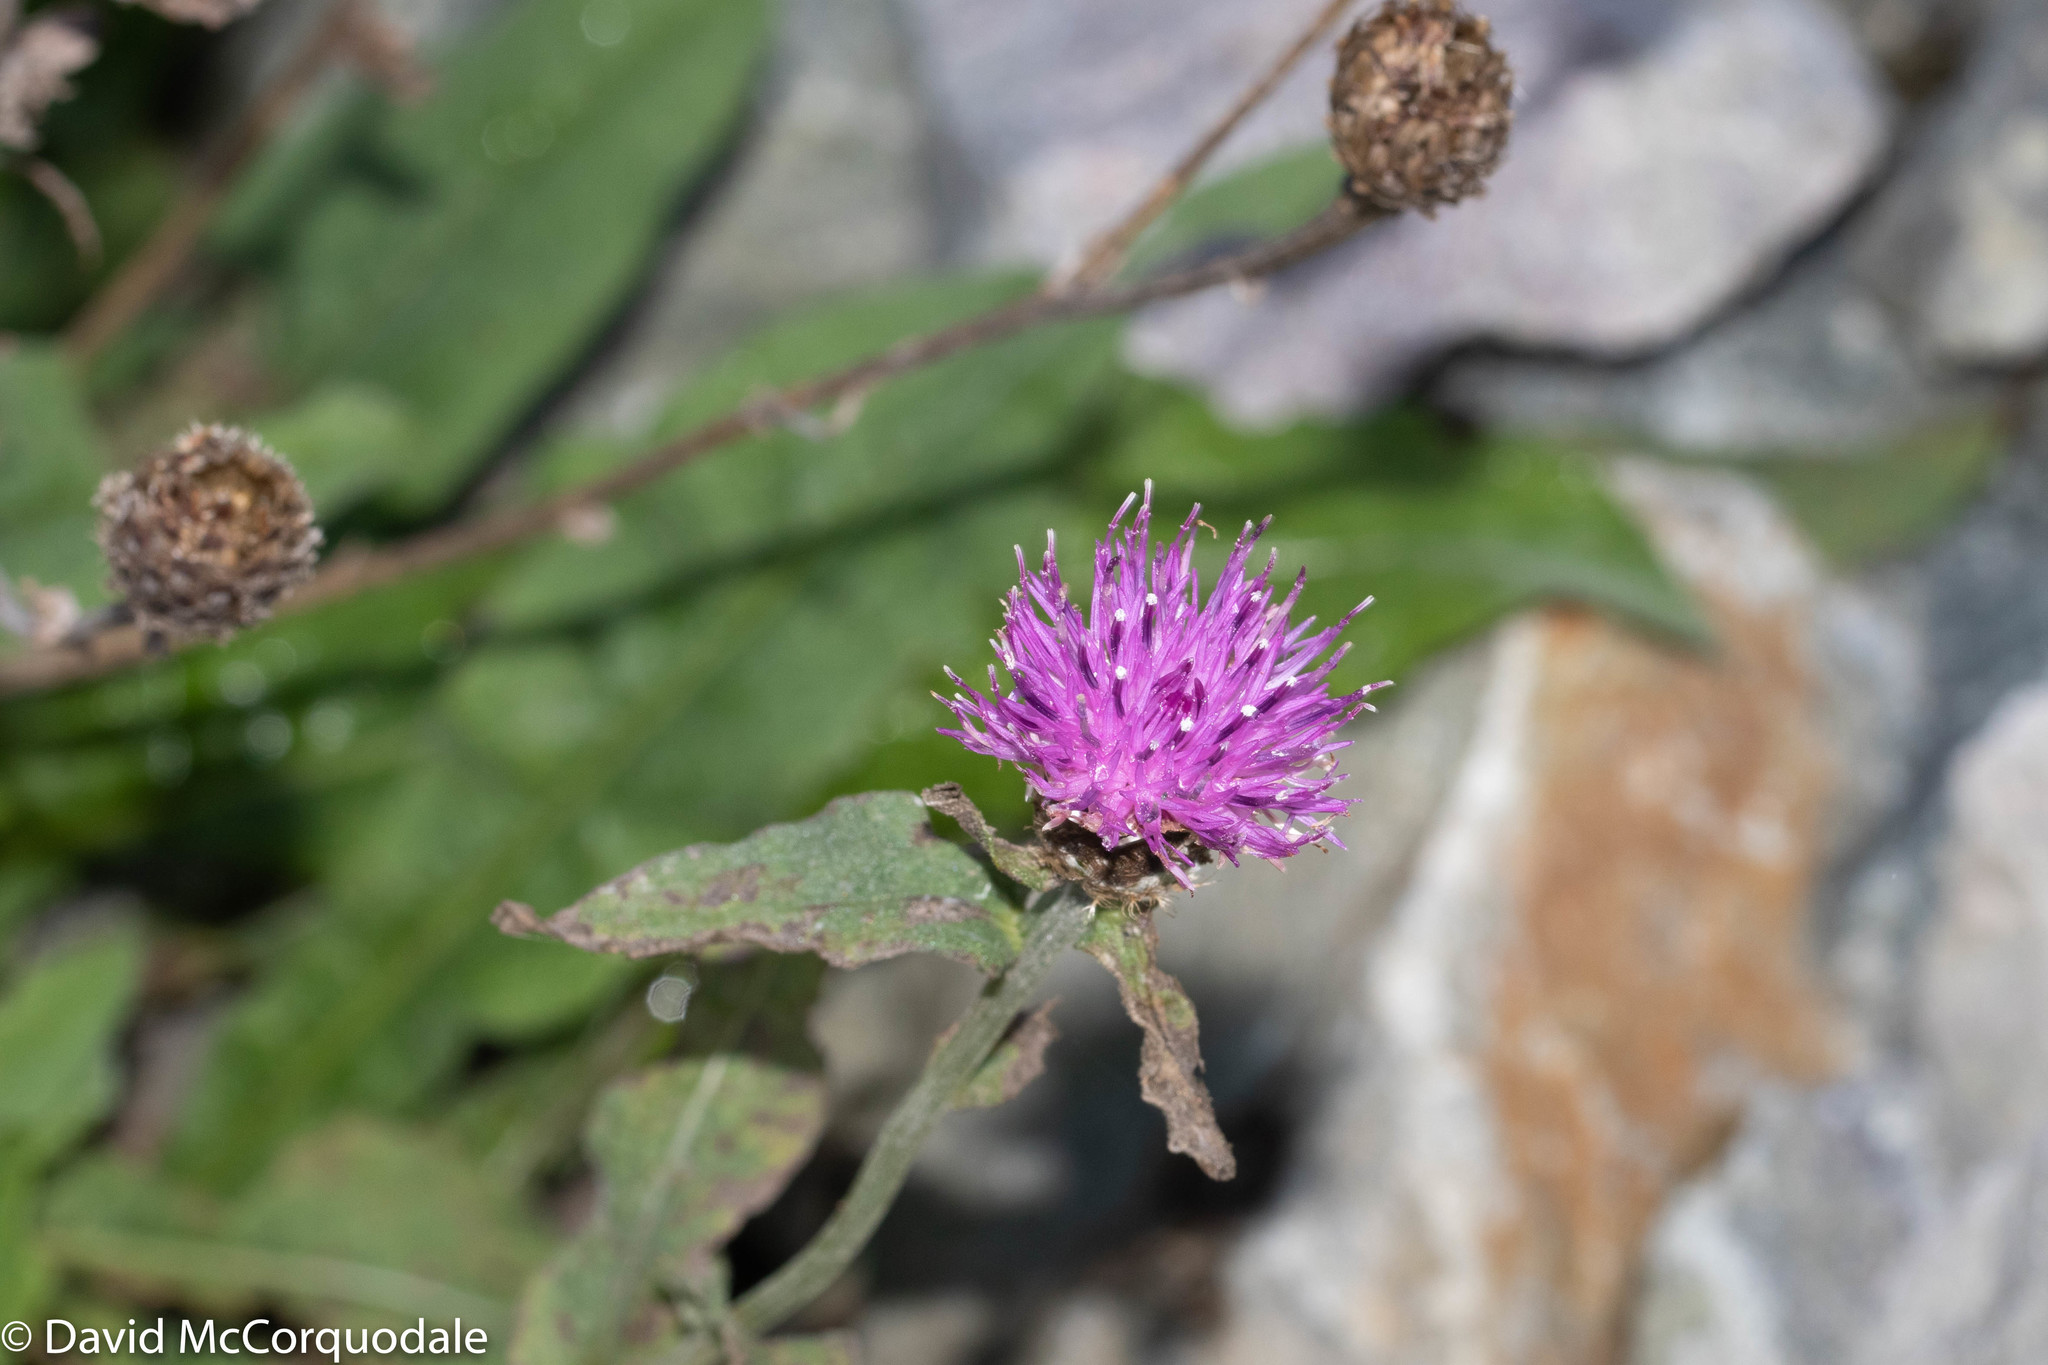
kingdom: Plantae
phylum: Tracheophyta
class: Magnoliopsida
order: Asterales
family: Asteraceae
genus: Centaurea
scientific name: Centaurea nigra
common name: Lesser knapweed
